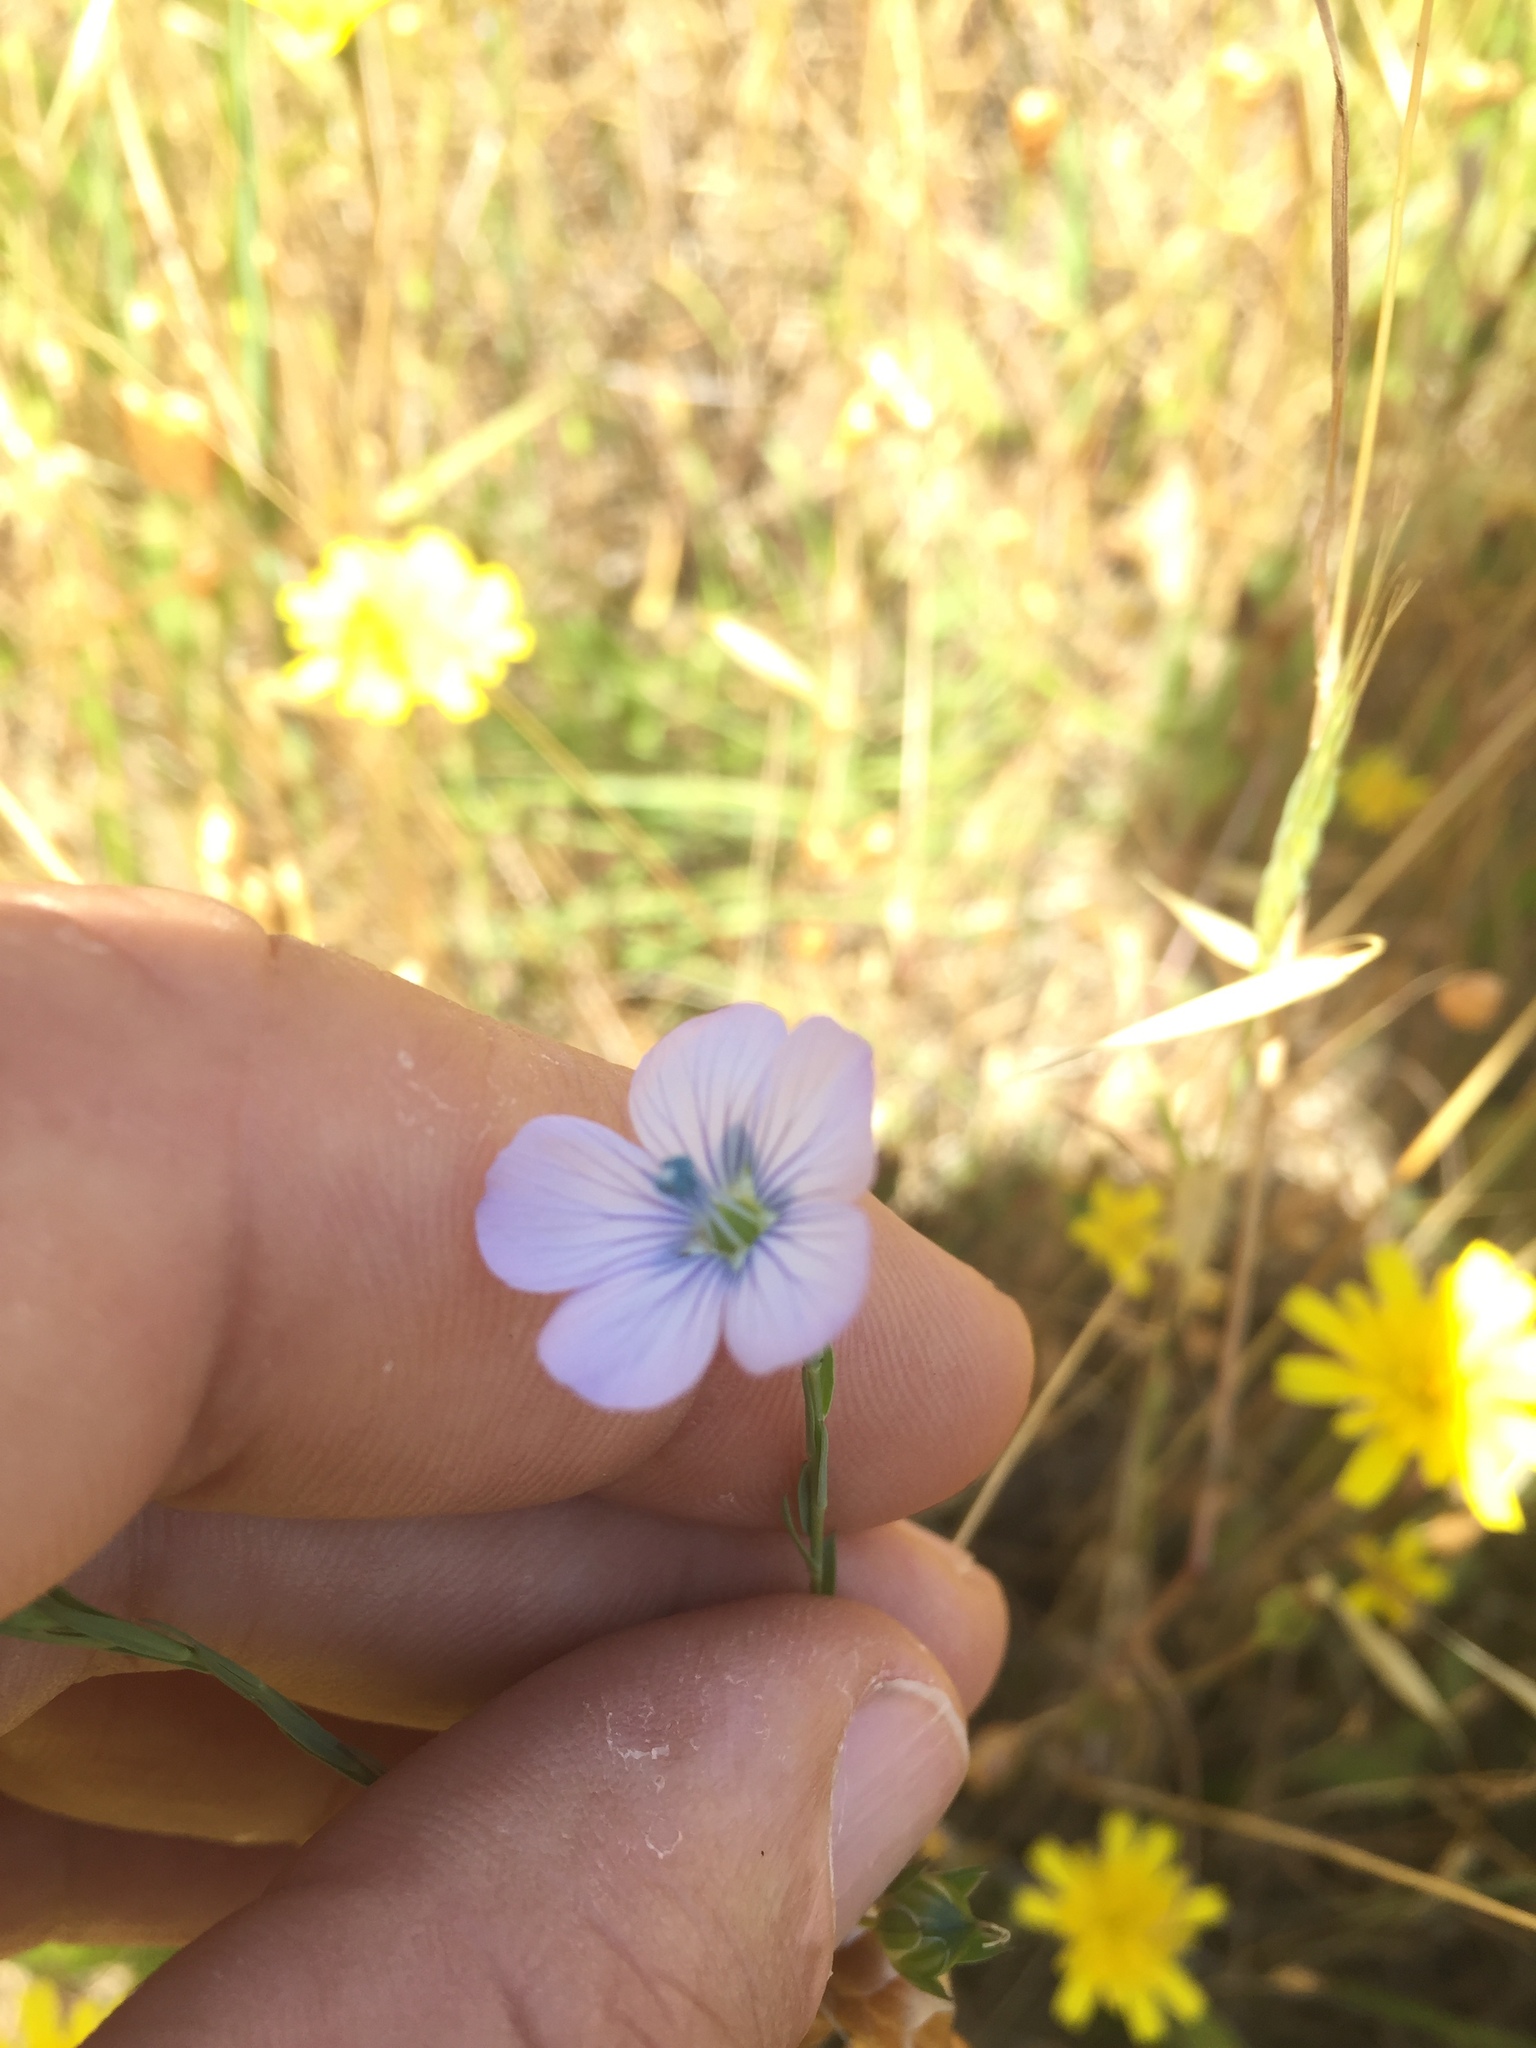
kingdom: Plantae
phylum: Tracheophyta
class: Magnoliopsida
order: Malpighiales
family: Linaceae
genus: Linum
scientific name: Linum bienne
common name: Pale flax
